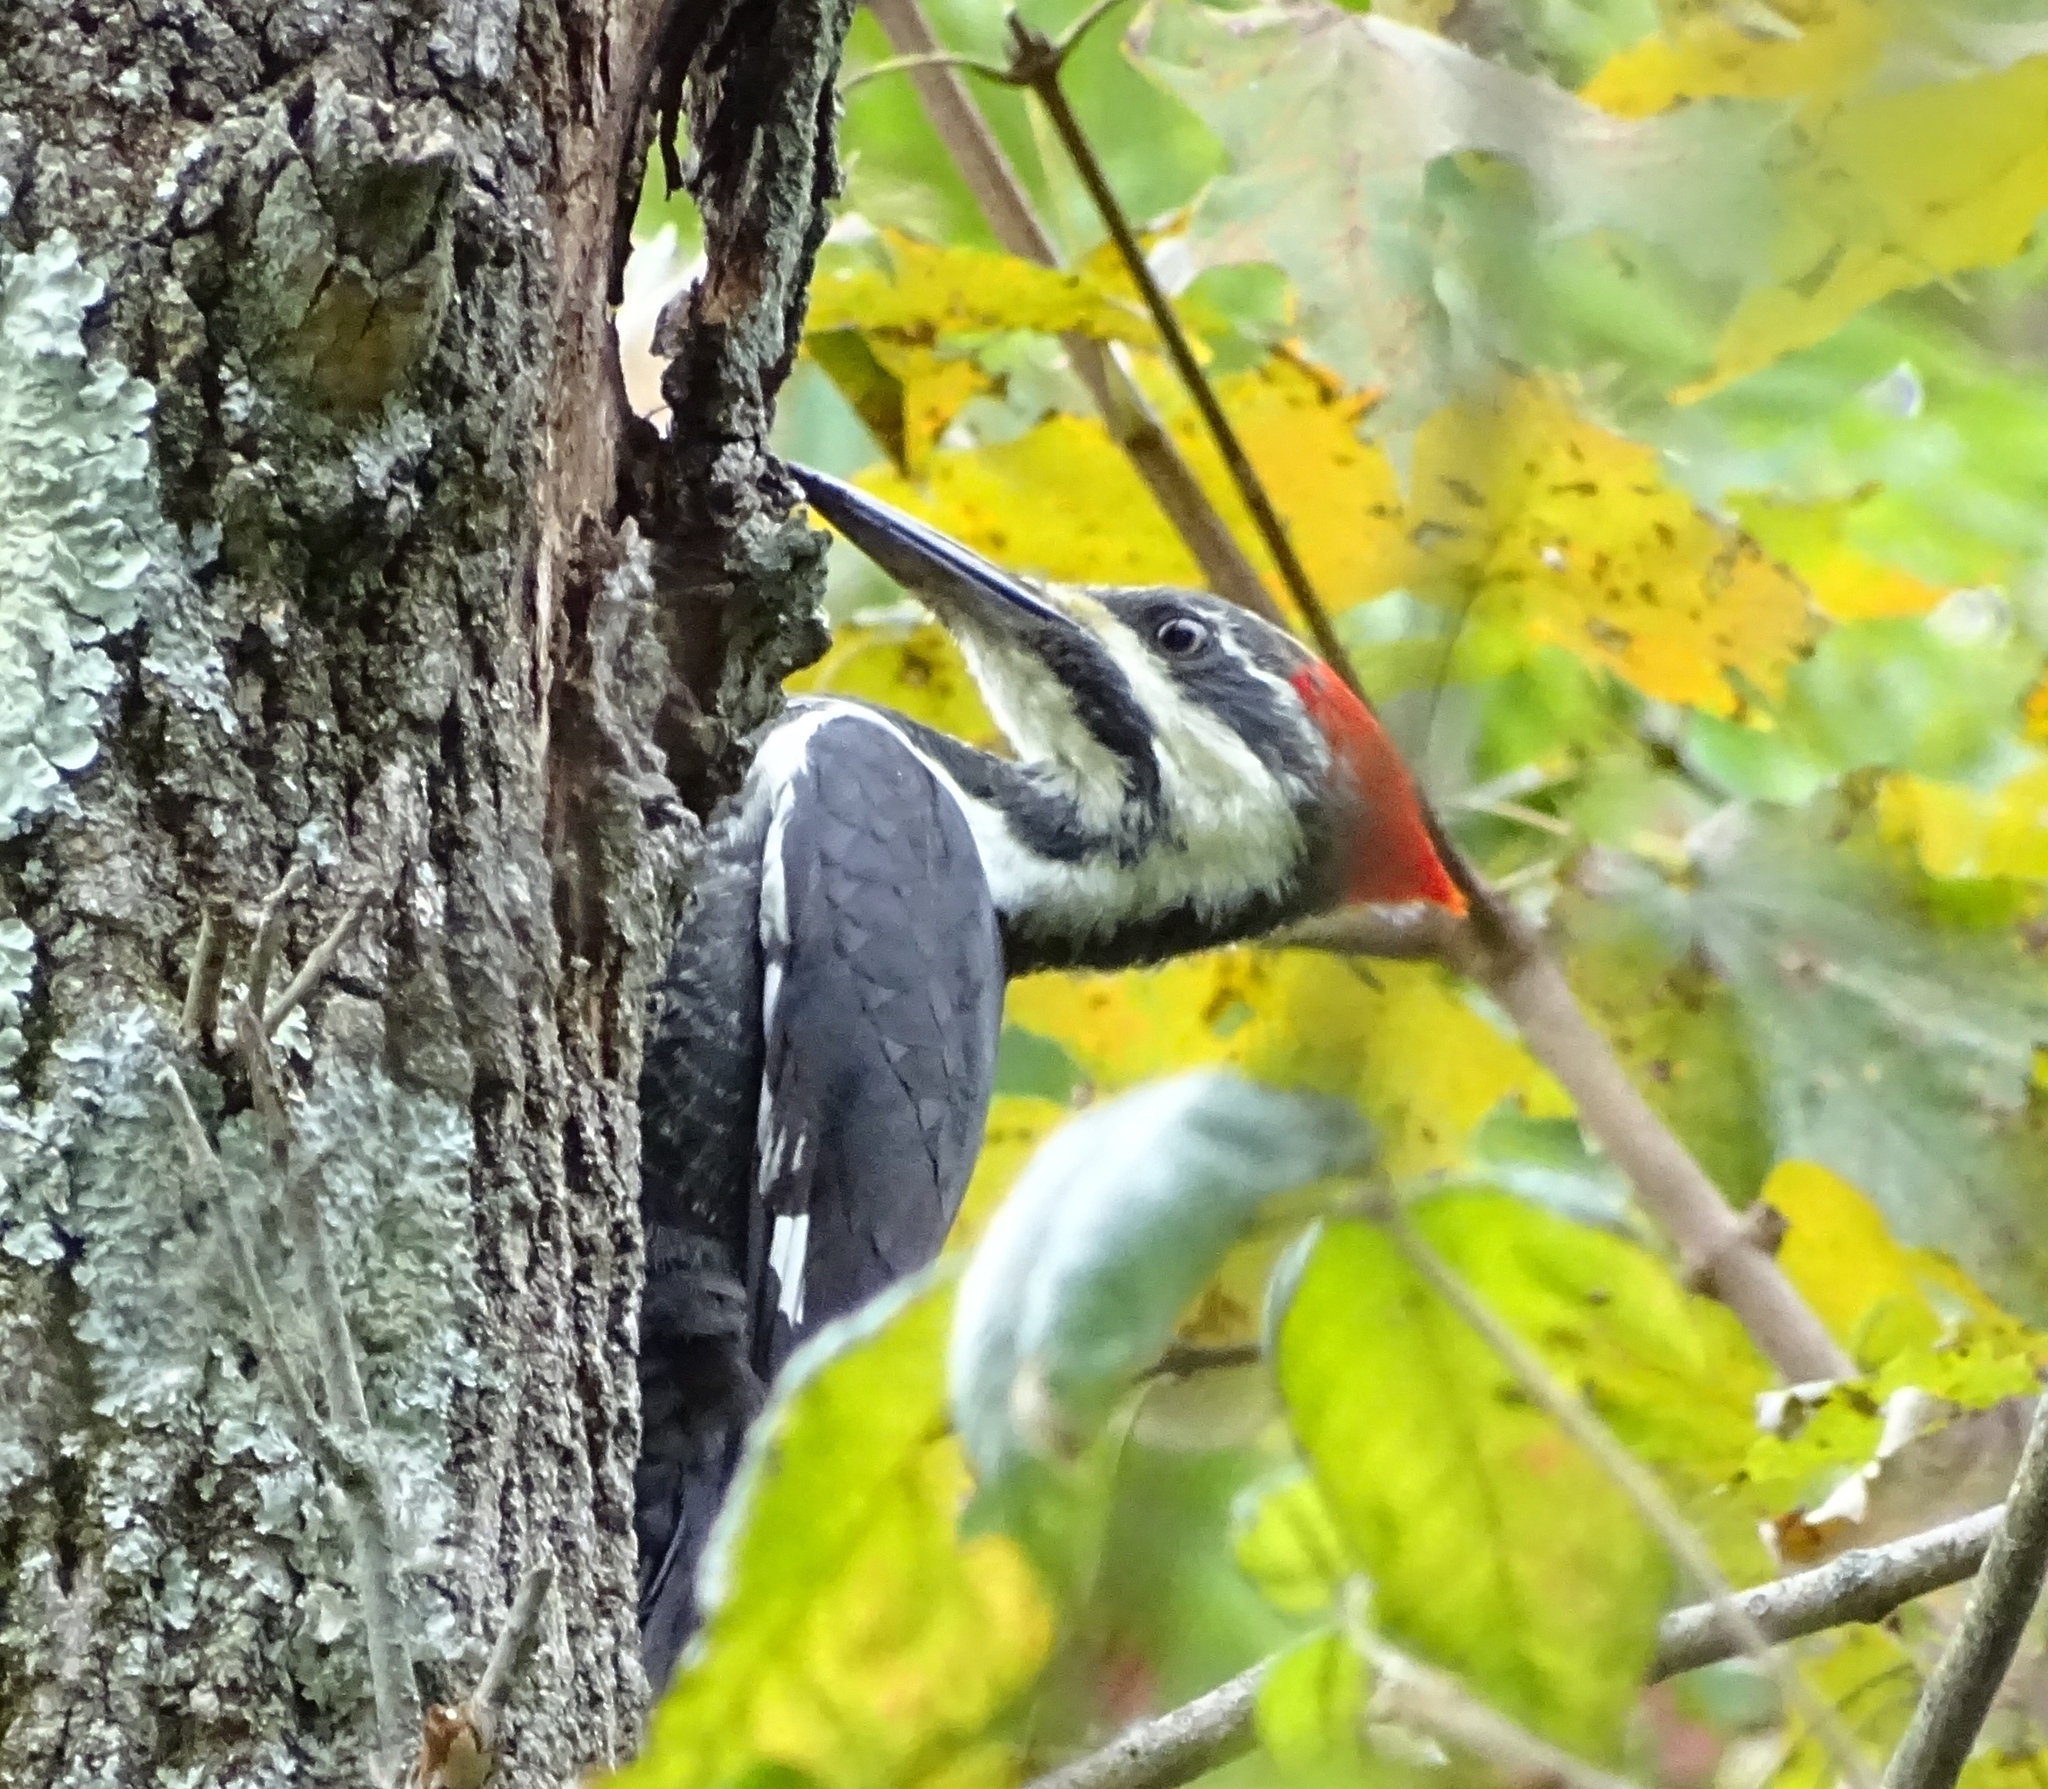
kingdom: Animalia
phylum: Chordata
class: Aves
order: Piciformes
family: Picidae
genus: Dryocopus
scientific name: Dryocopus pileatus
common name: Pileated woodpecker
